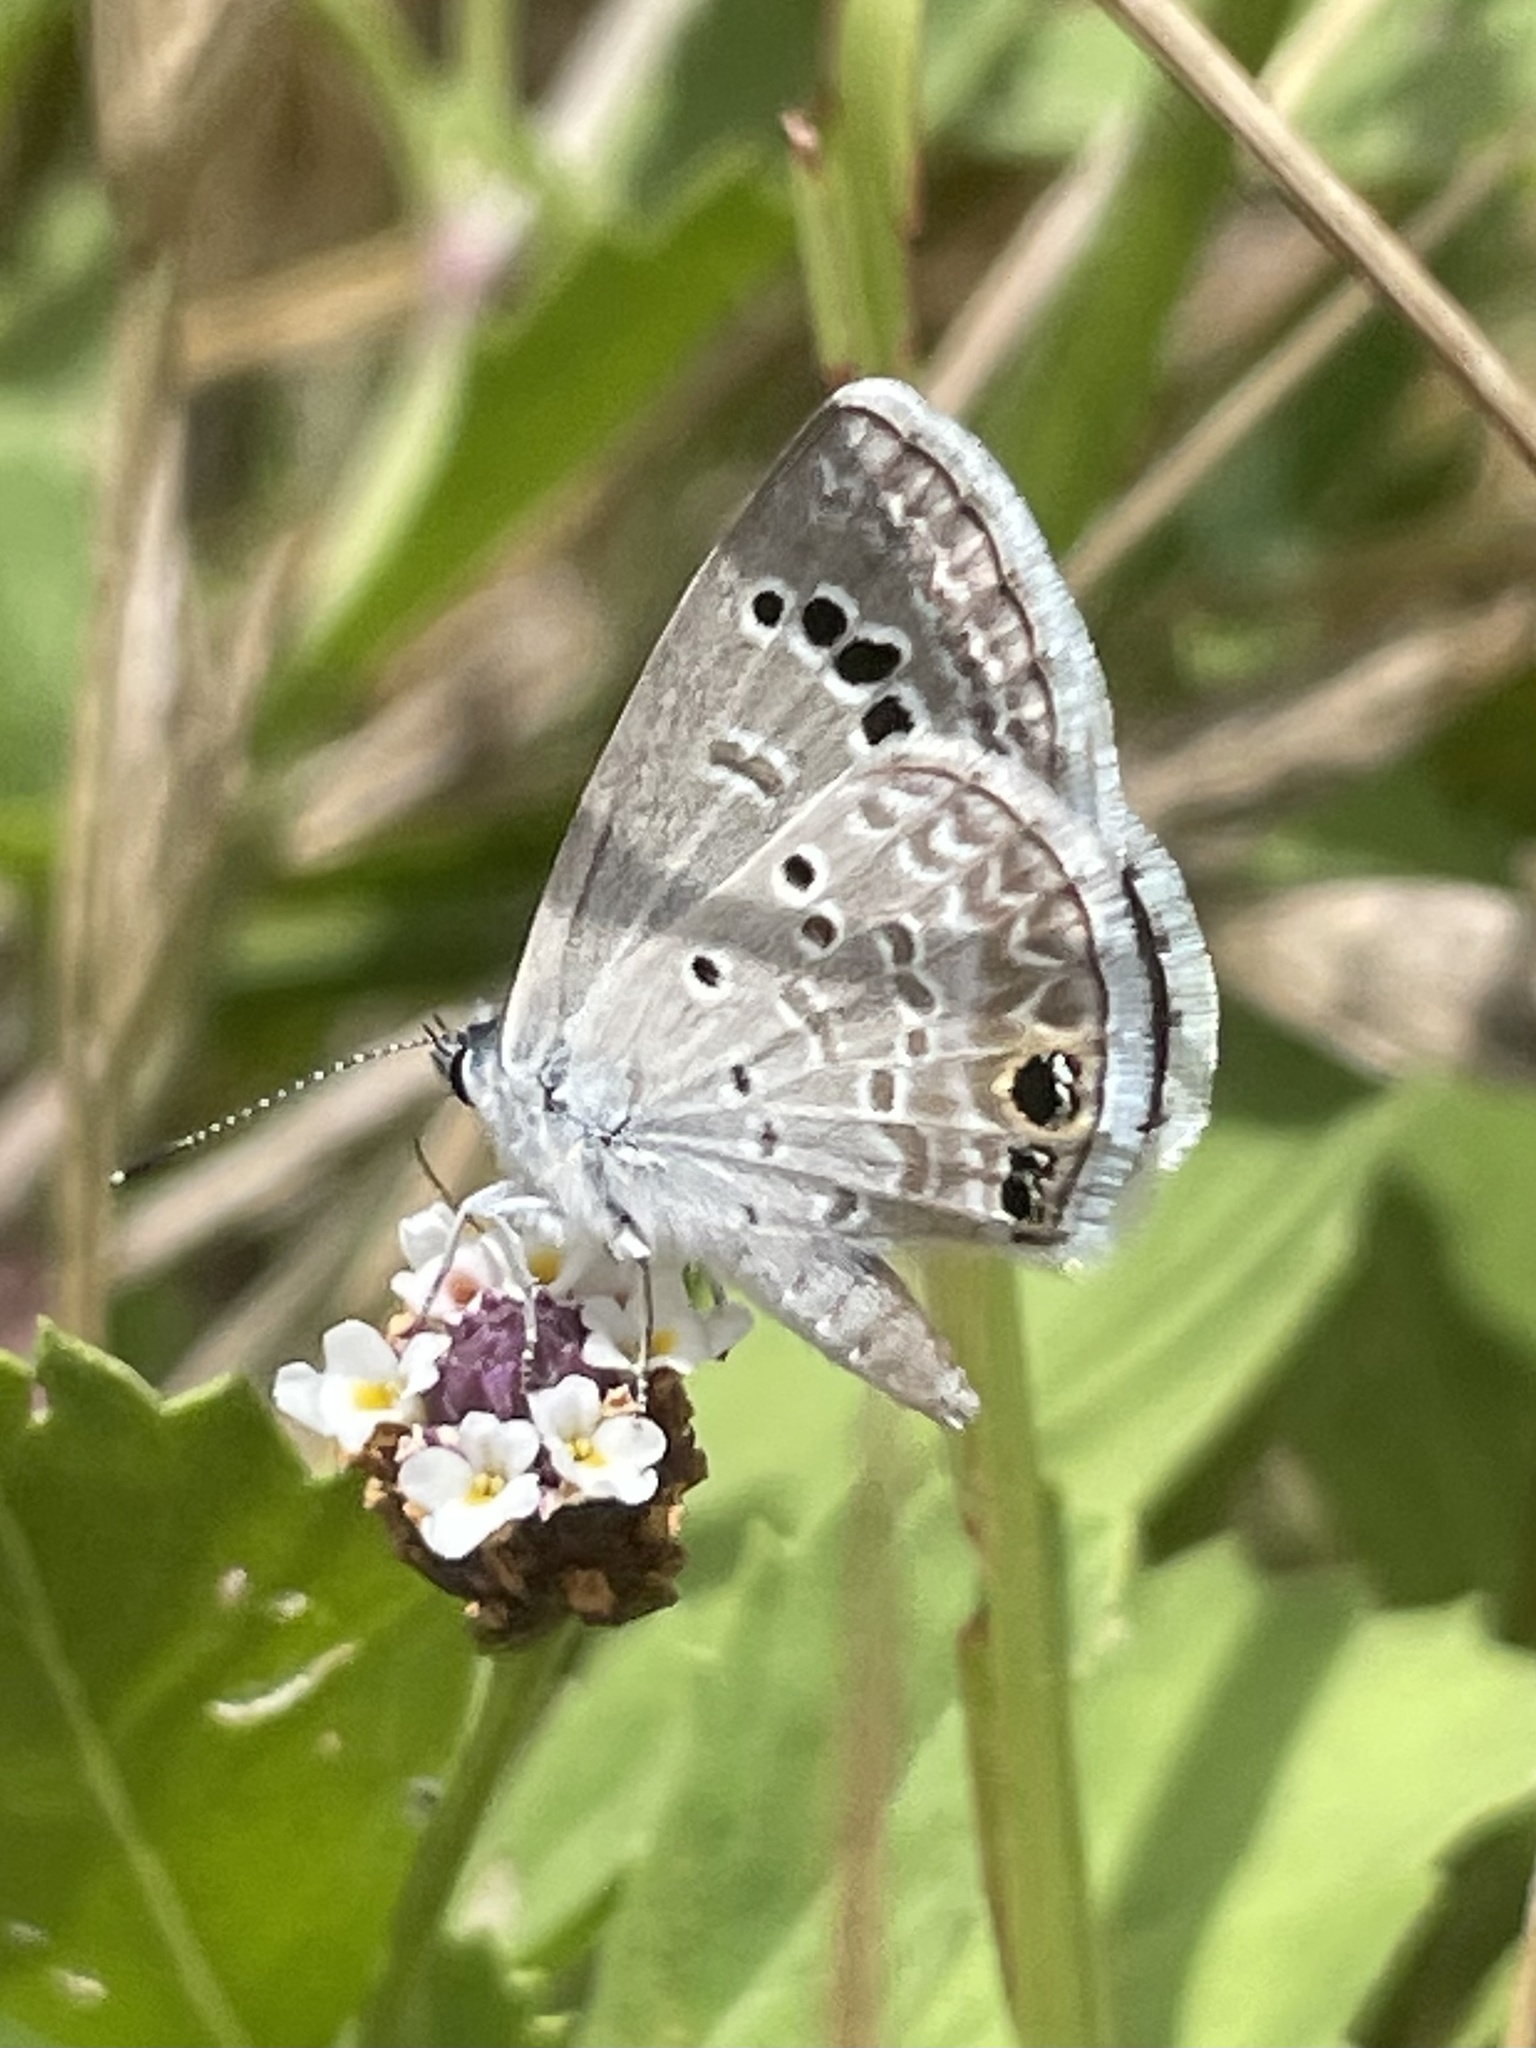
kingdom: Animalia
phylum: Arthropoda
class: Insecta
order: Lepidoptera
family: Lycaenidae
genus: Echinargus
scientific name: Echinargus isola
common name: Reakirt's blue
